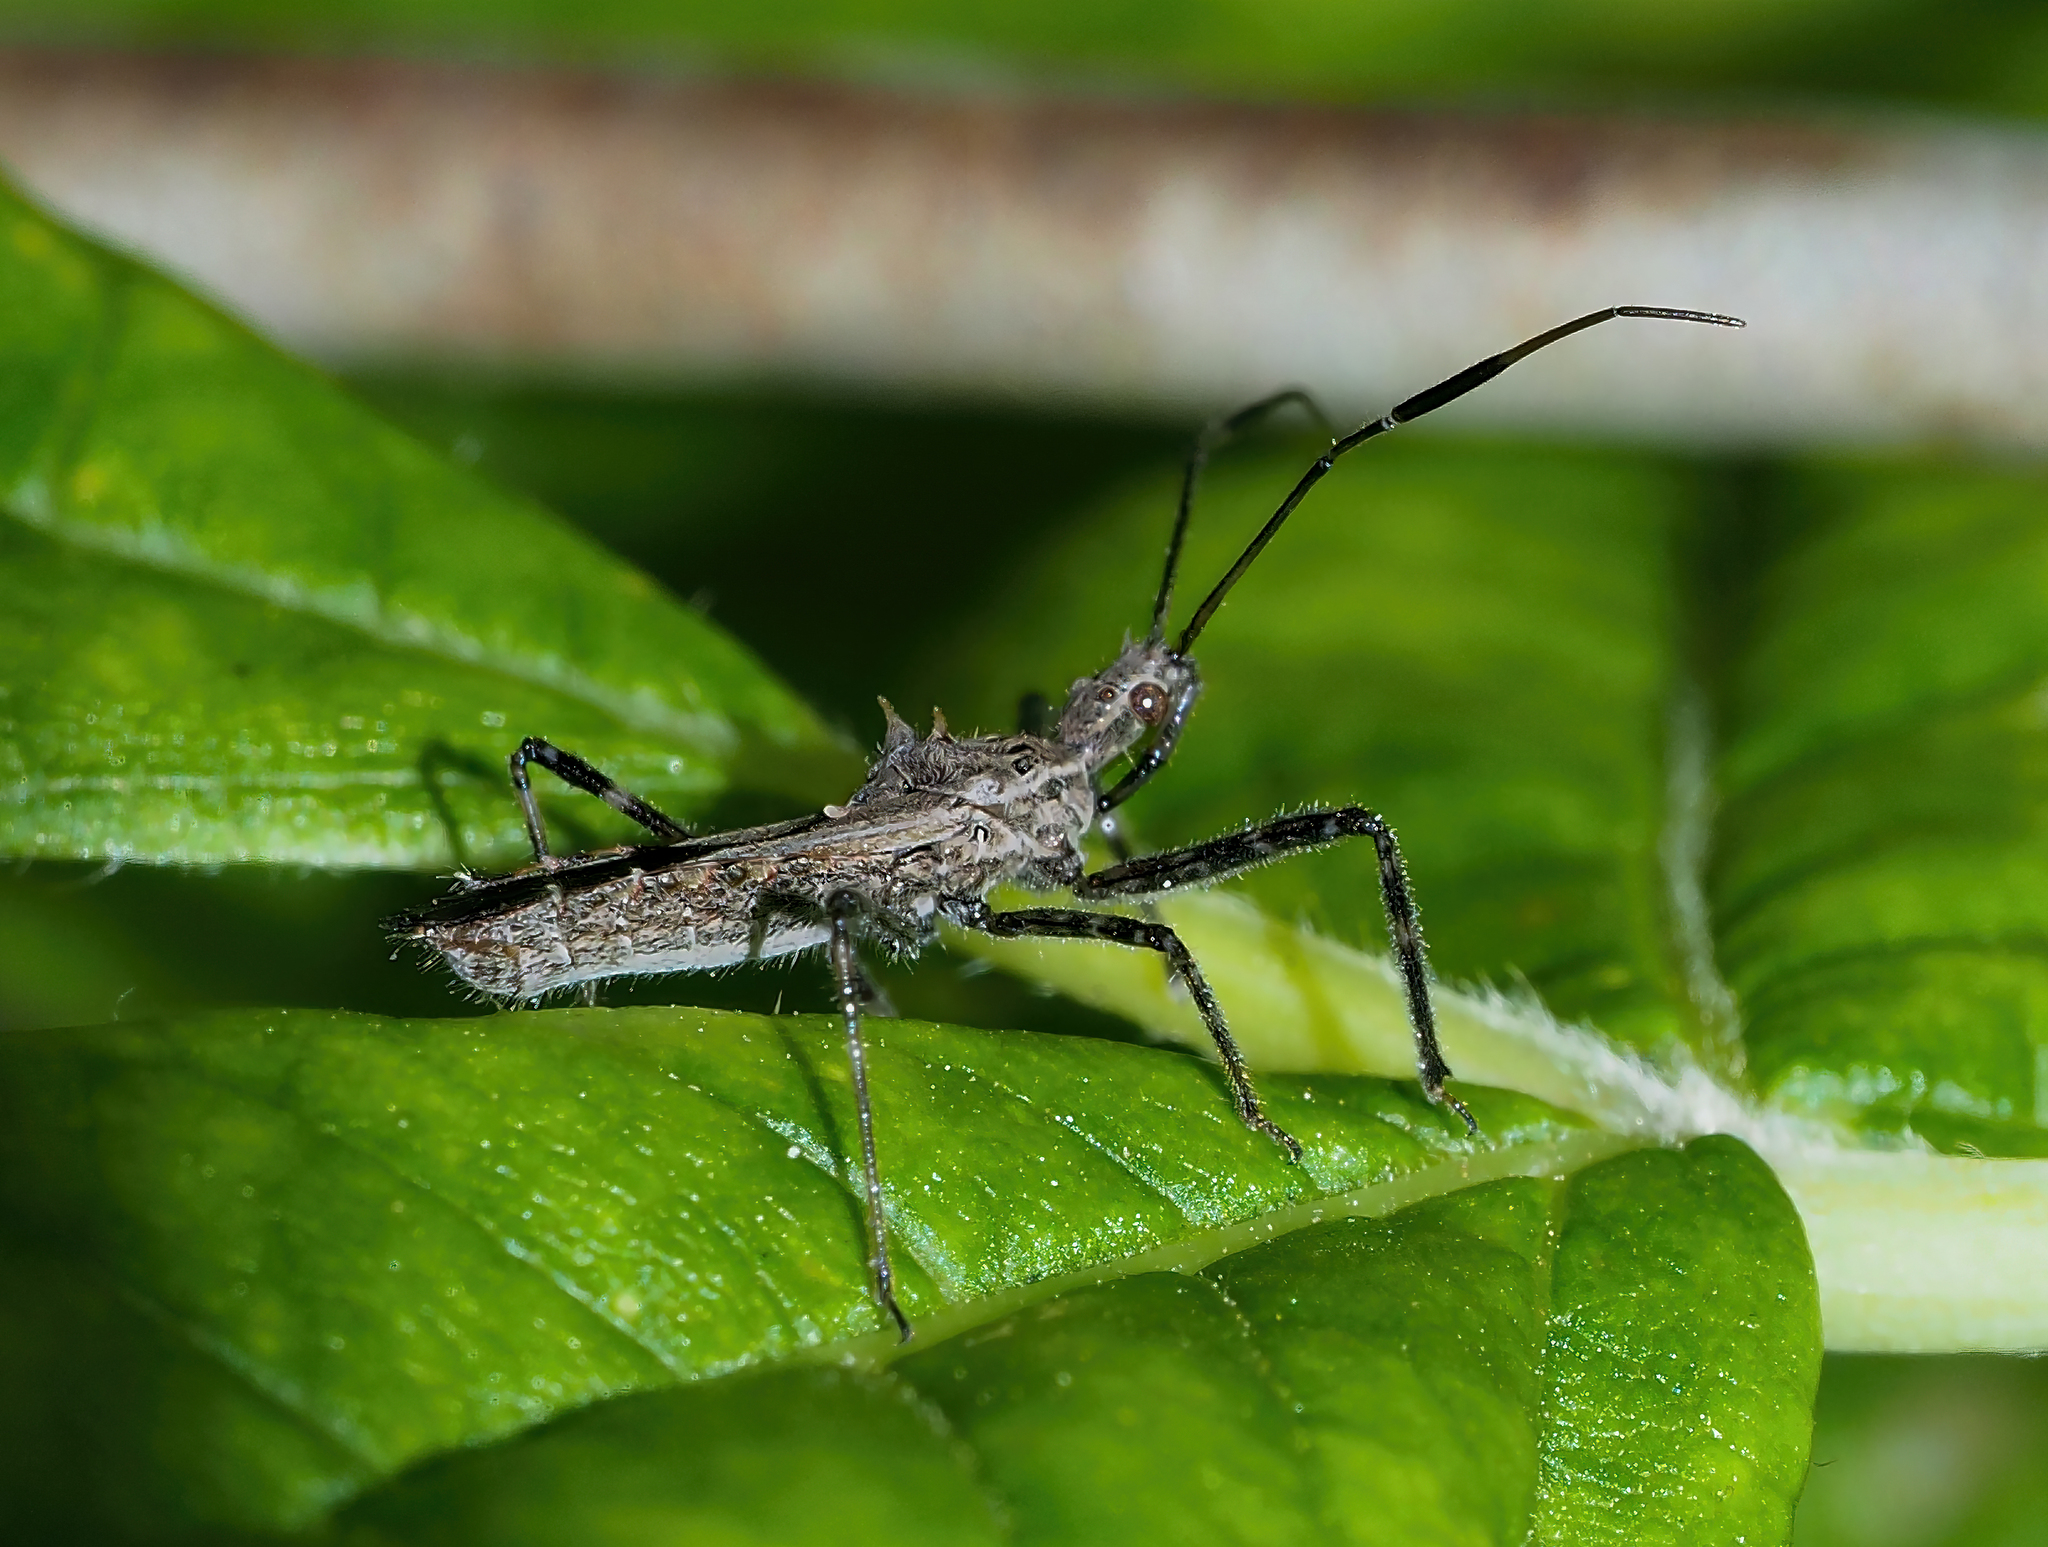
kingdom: Animalia
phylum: Arthropoda
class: Insecta
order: Hemiptera
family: Reduviidae
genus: Atrachelus
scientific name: Atrachelus cinereus
